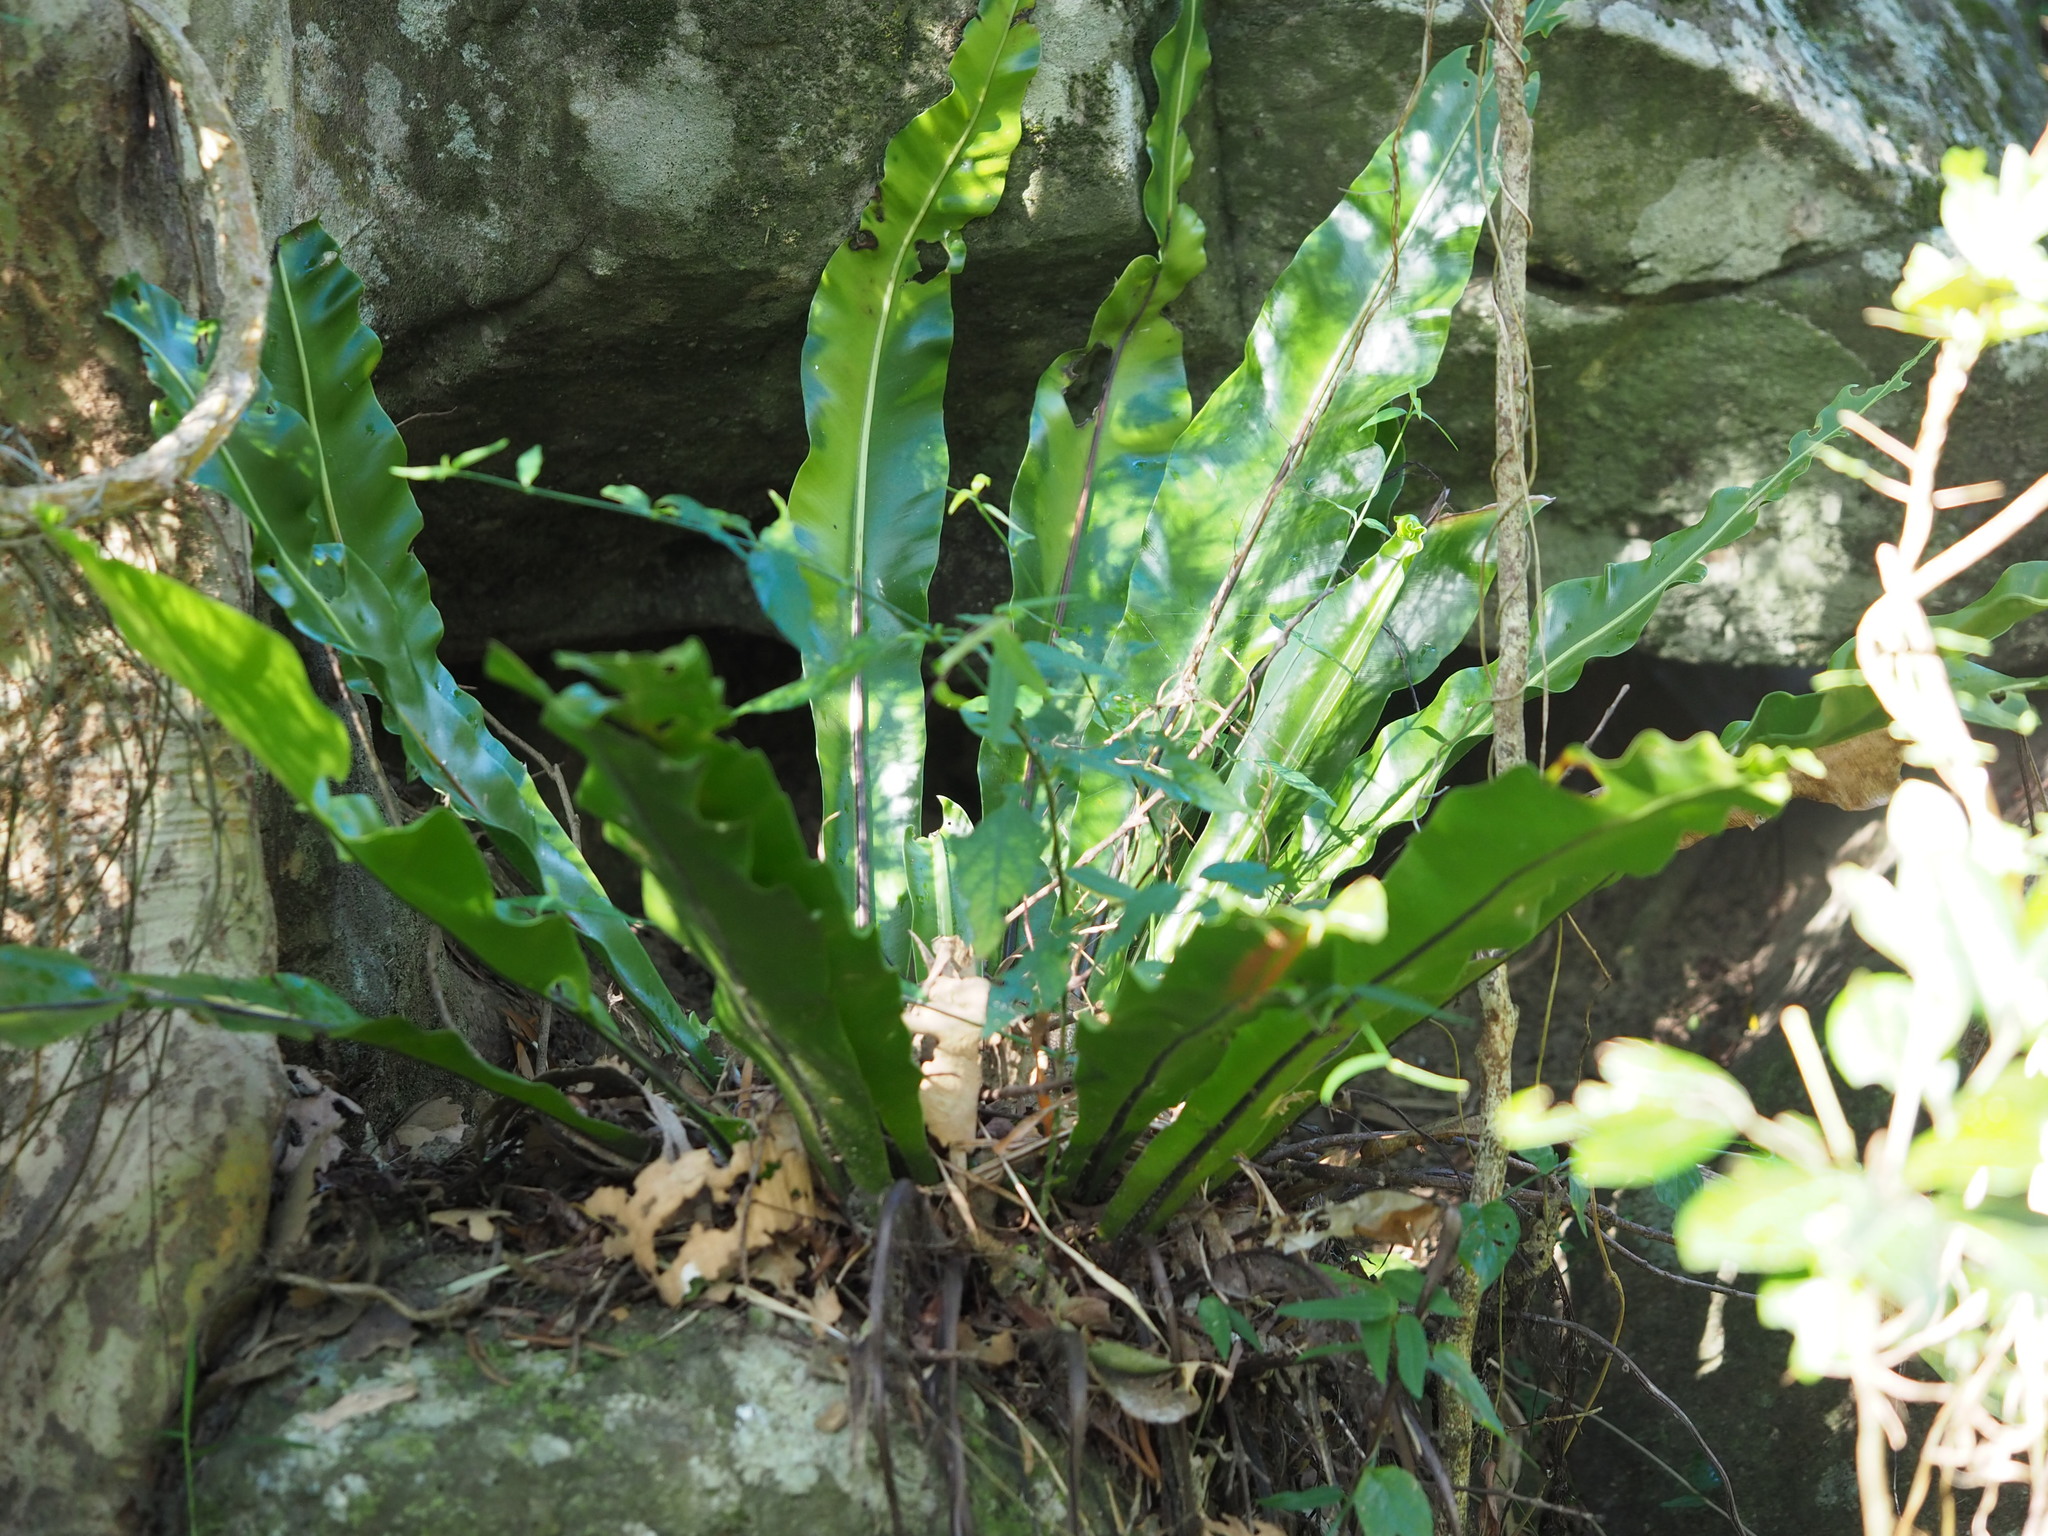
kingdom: Plantae
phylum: Tracheophyta
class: Polypodiopsida
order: Polypodiales
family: Aspleniaceae
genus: Asplenium
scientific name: Asplenium nidus
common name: Bird's-nest fern
